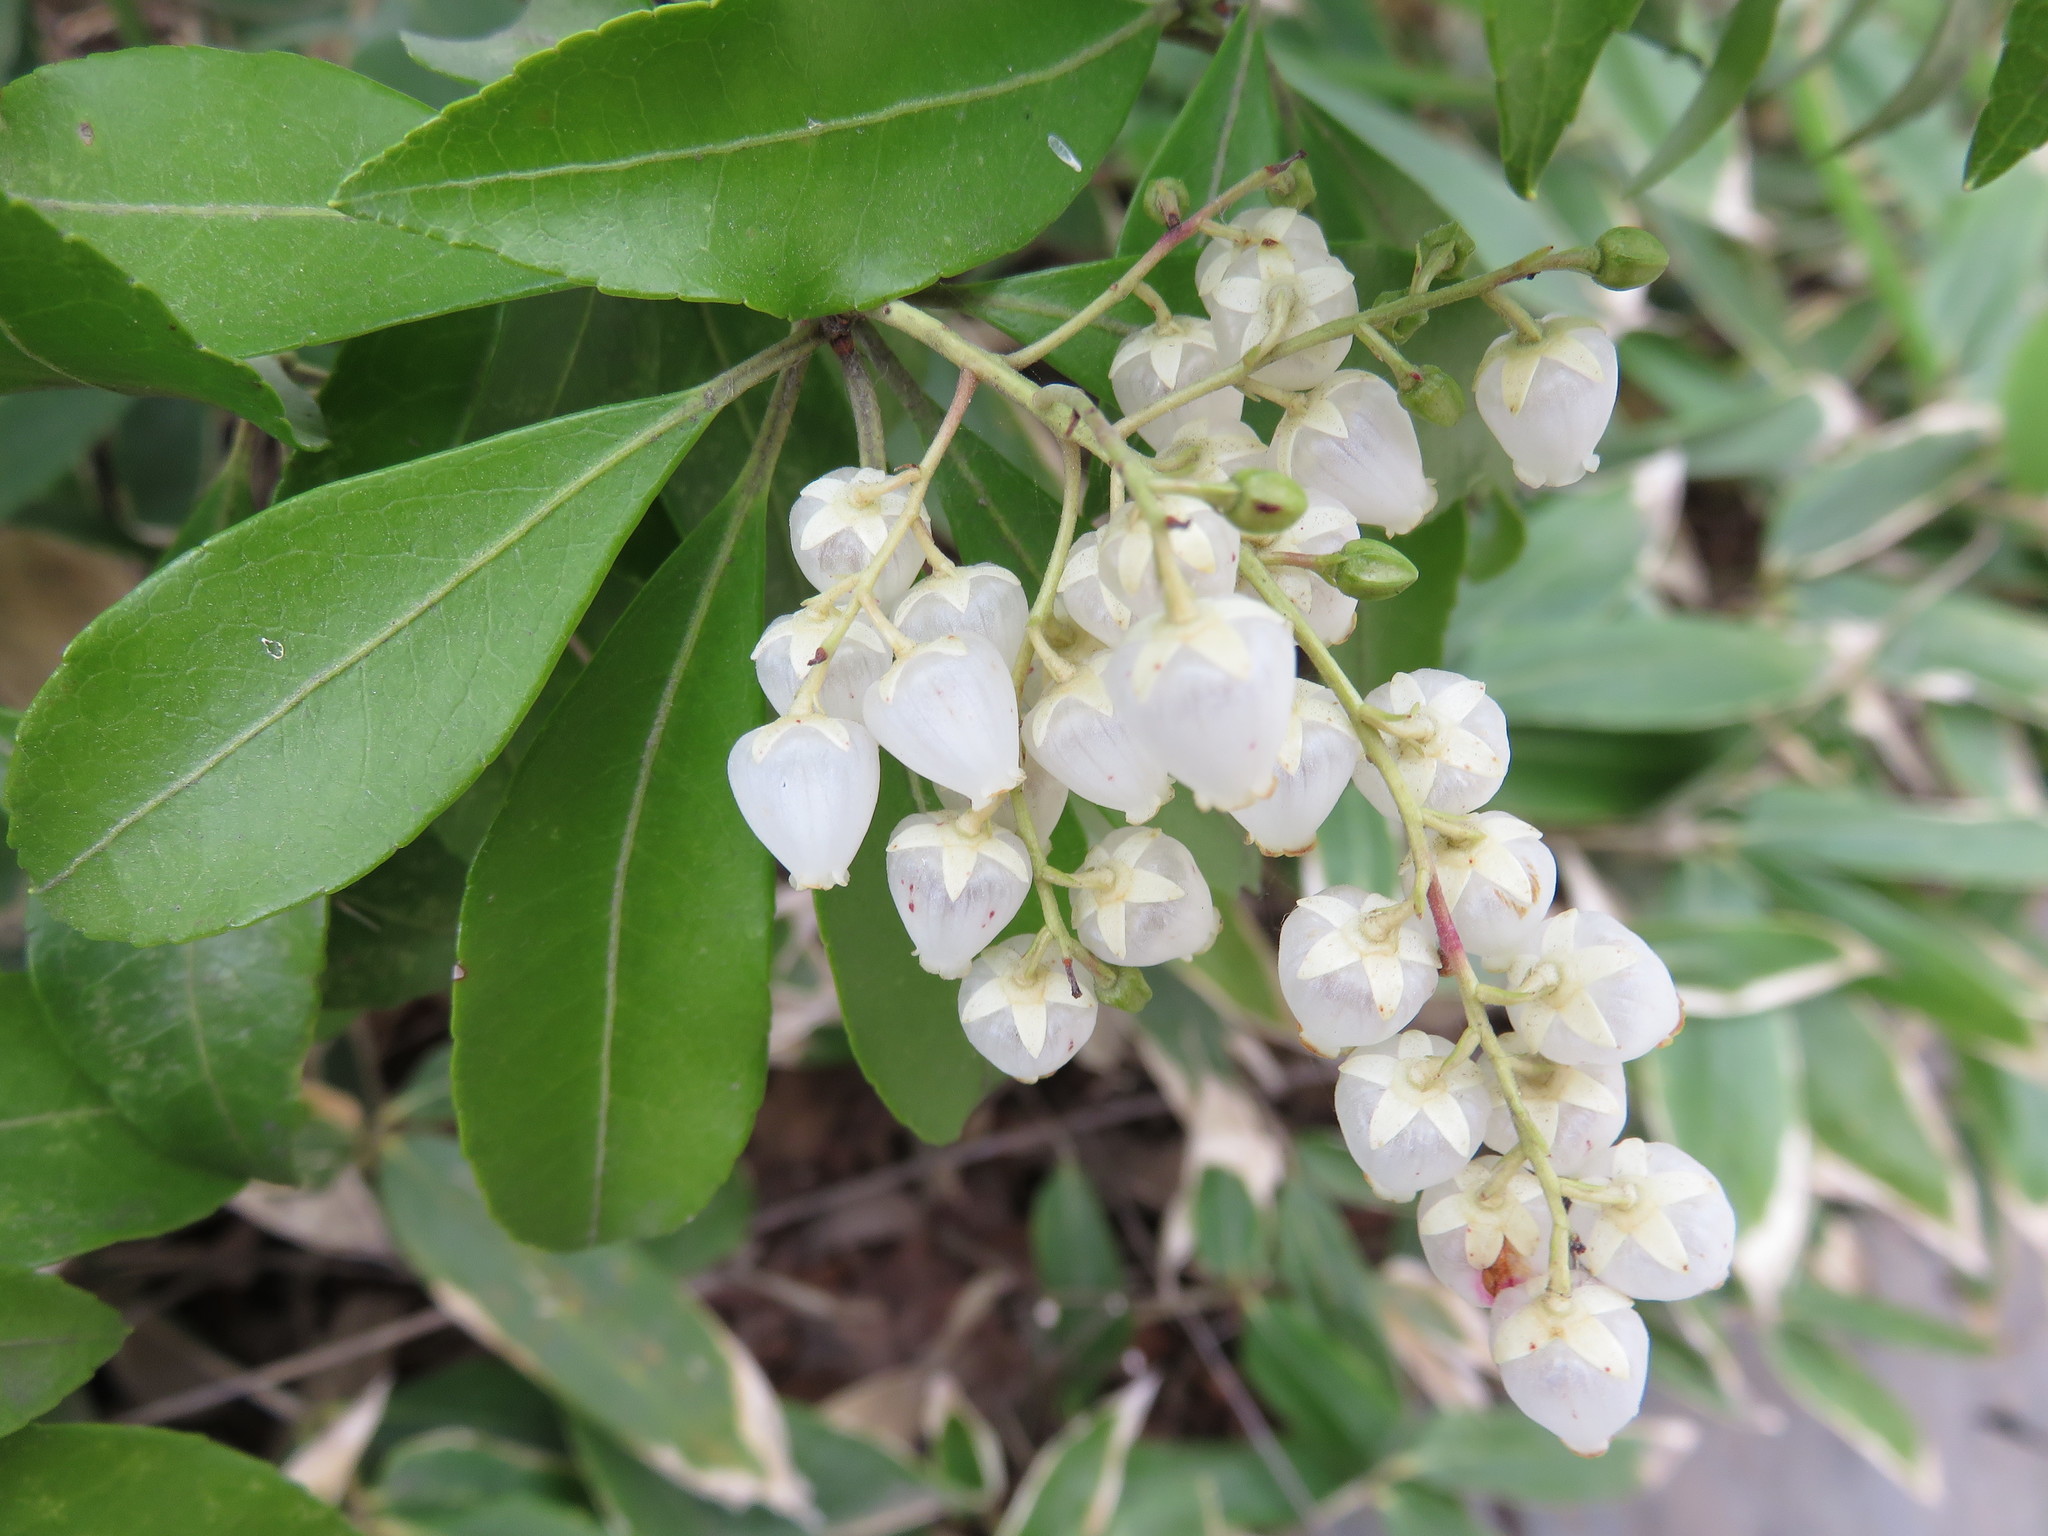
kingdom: Plantae
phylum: Tracheophyta
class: Magnoliopsida
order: Ericales
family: Ericaceae
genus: Pieris
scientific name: Pieris japonica
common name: Japanese pieris
